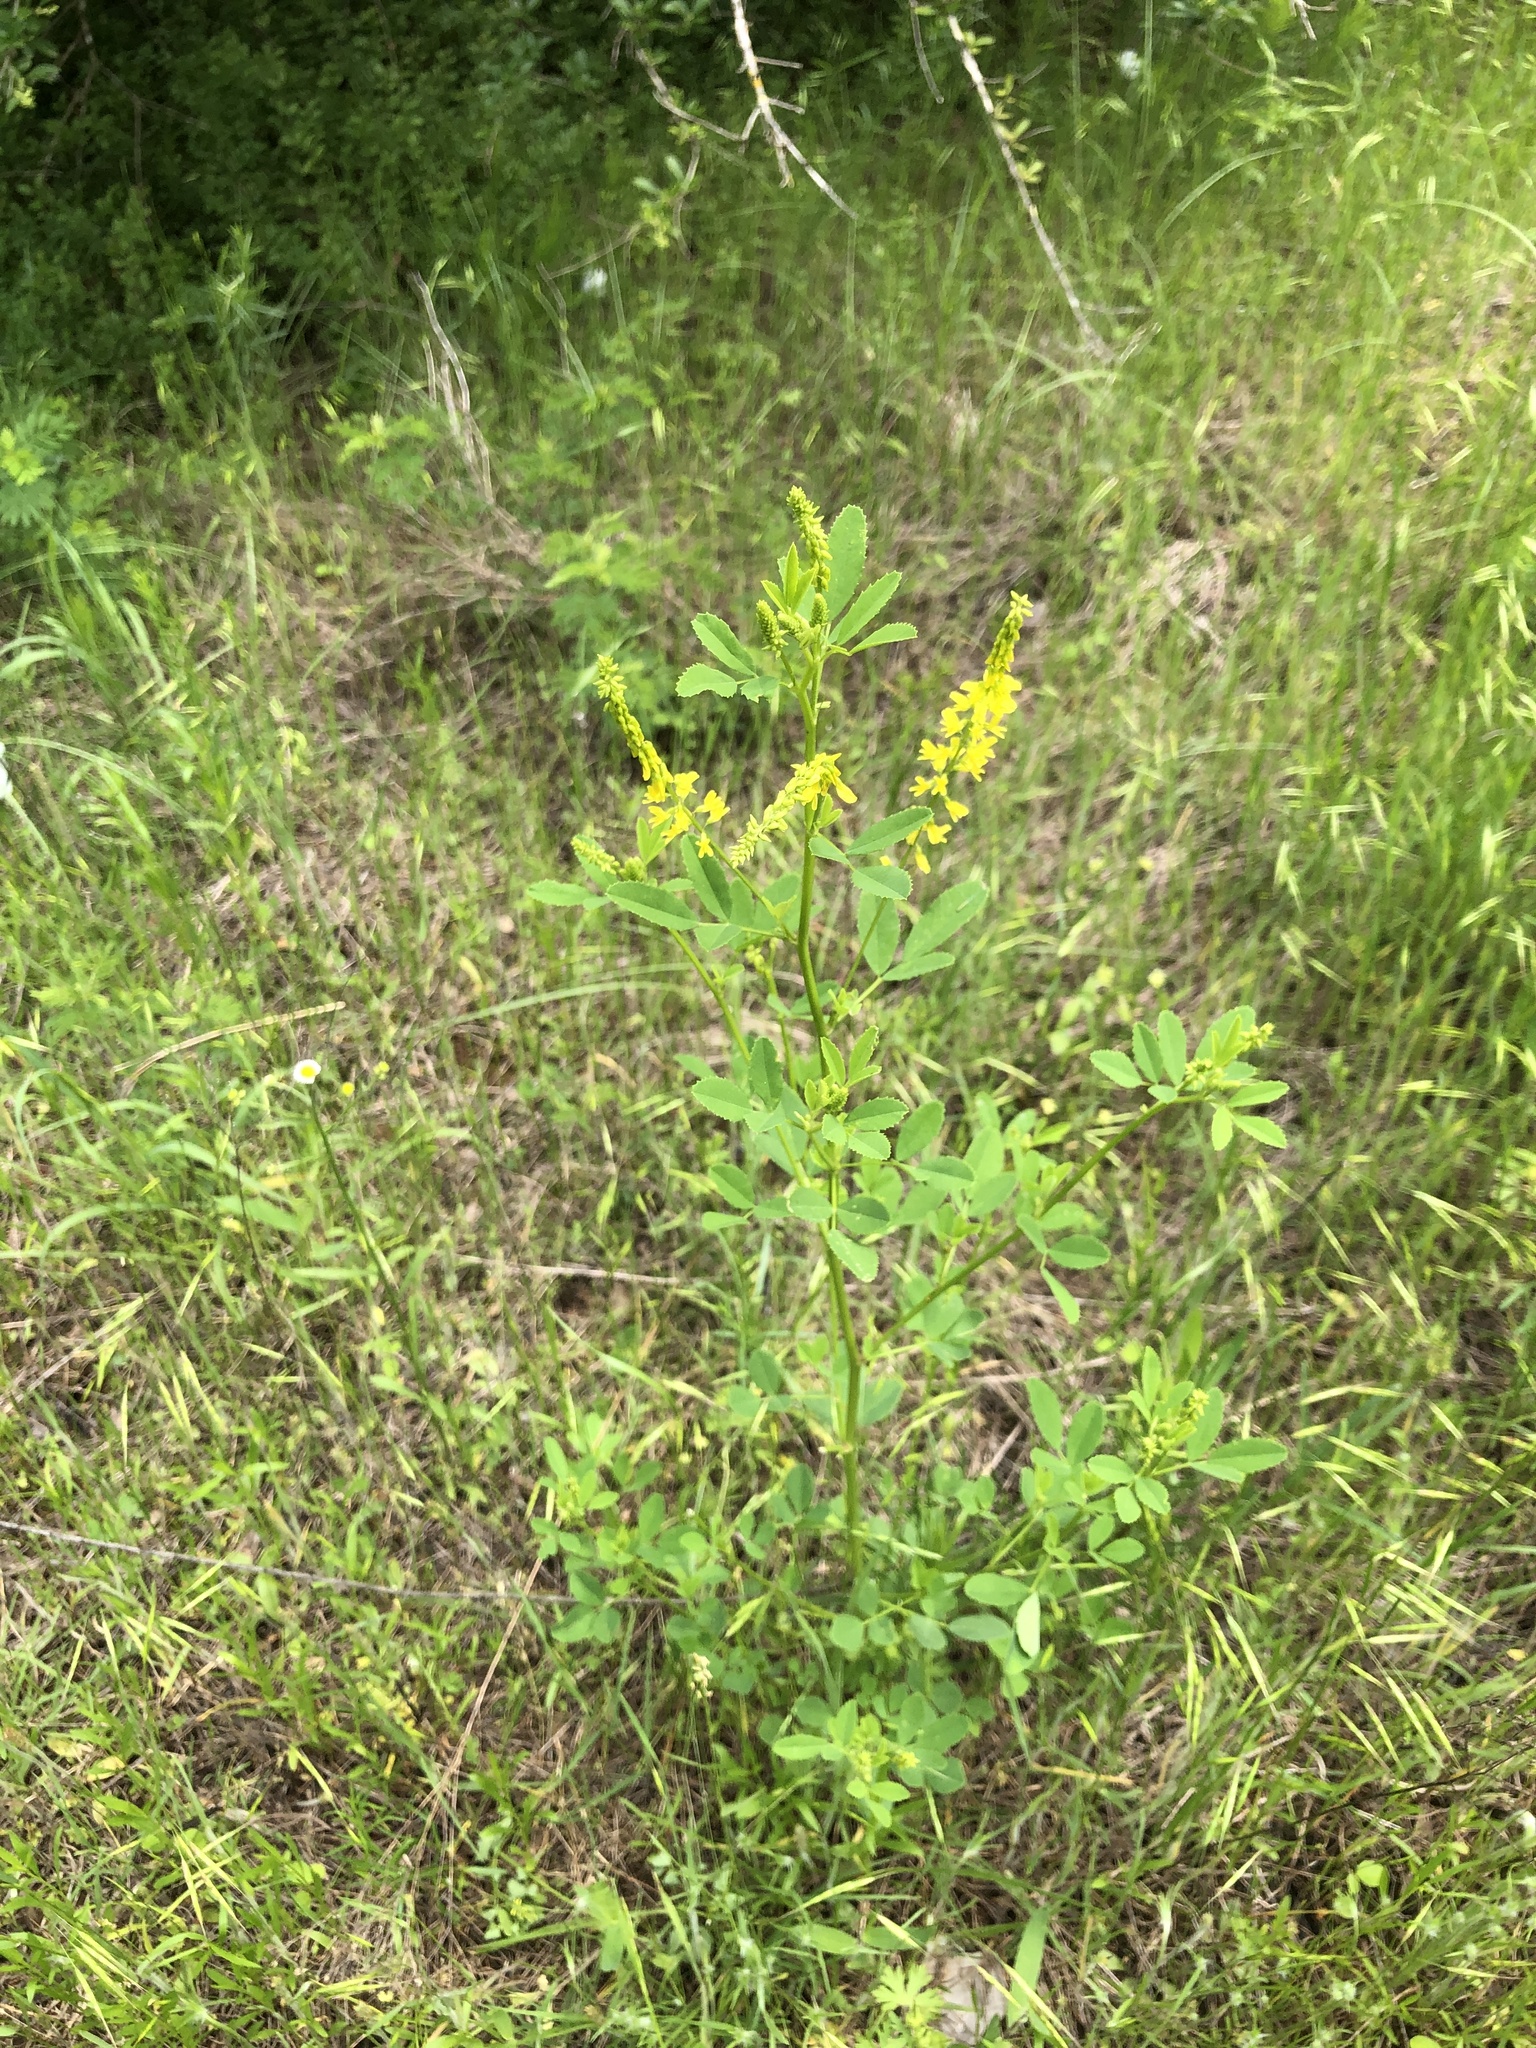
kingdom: Plantae
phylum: Tracheophyta
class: Magnoliopsida
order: Fabales
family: Fabaceae
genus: Melilotus
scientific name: Melilotus officinalis
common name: Sweetclover
